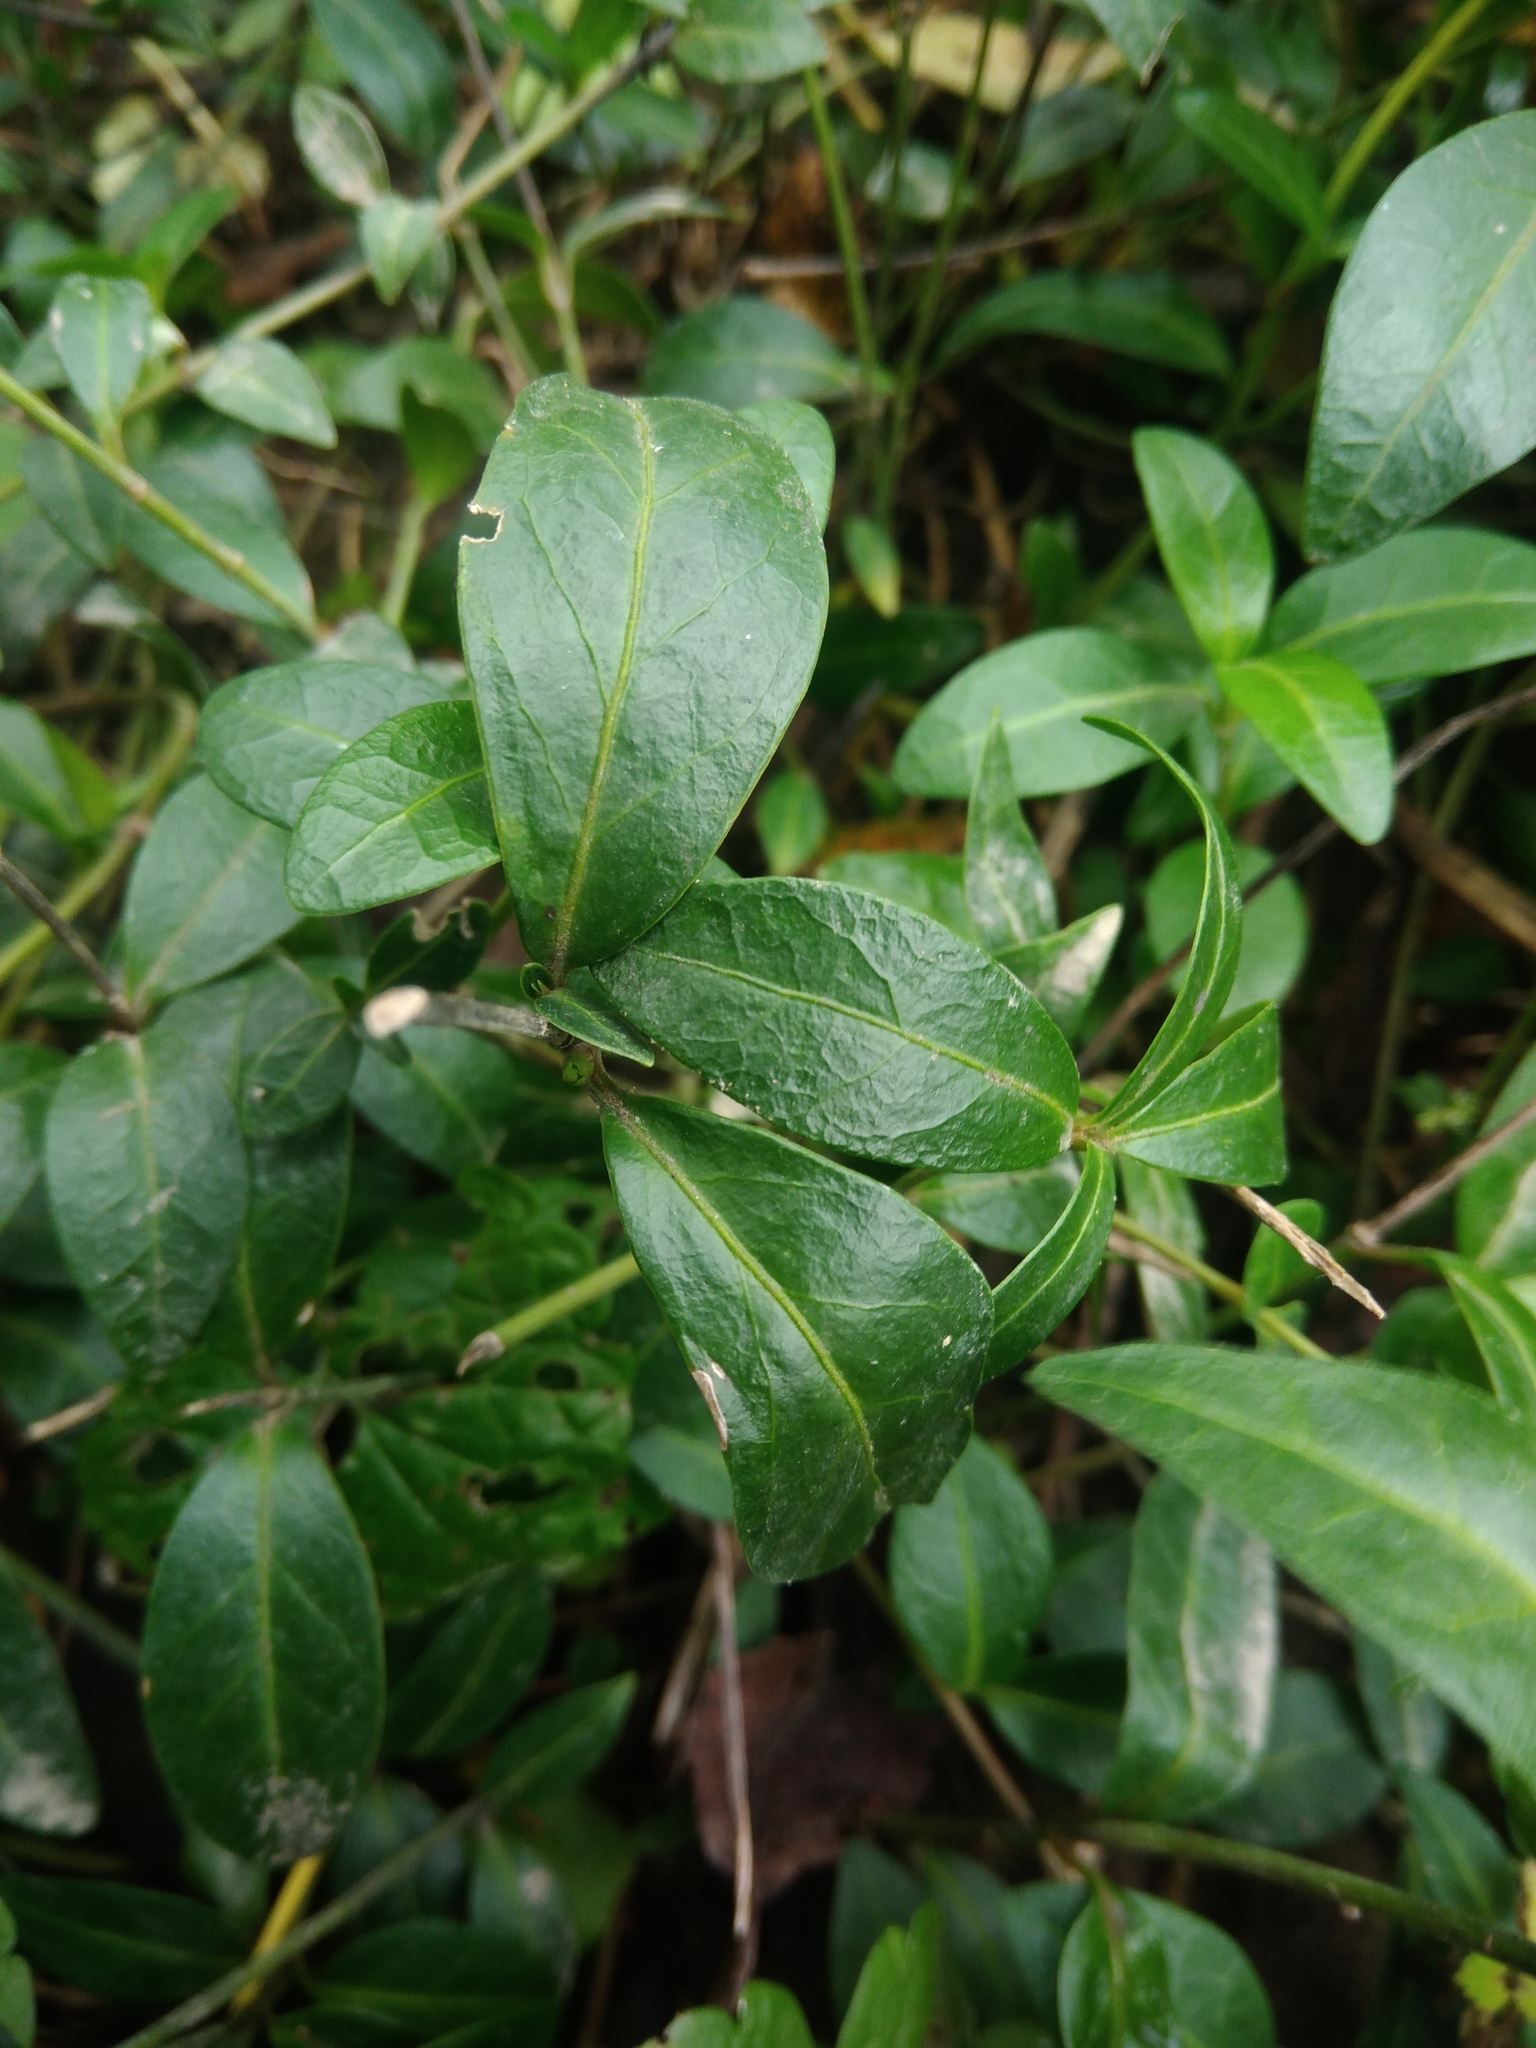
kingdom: Plantae
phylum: Tracheophyta
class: Magnoliopsida
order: Gentianales
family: Apocynaceae
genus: Vinca
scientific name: Vinca minor
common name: Lesser periwinkle
